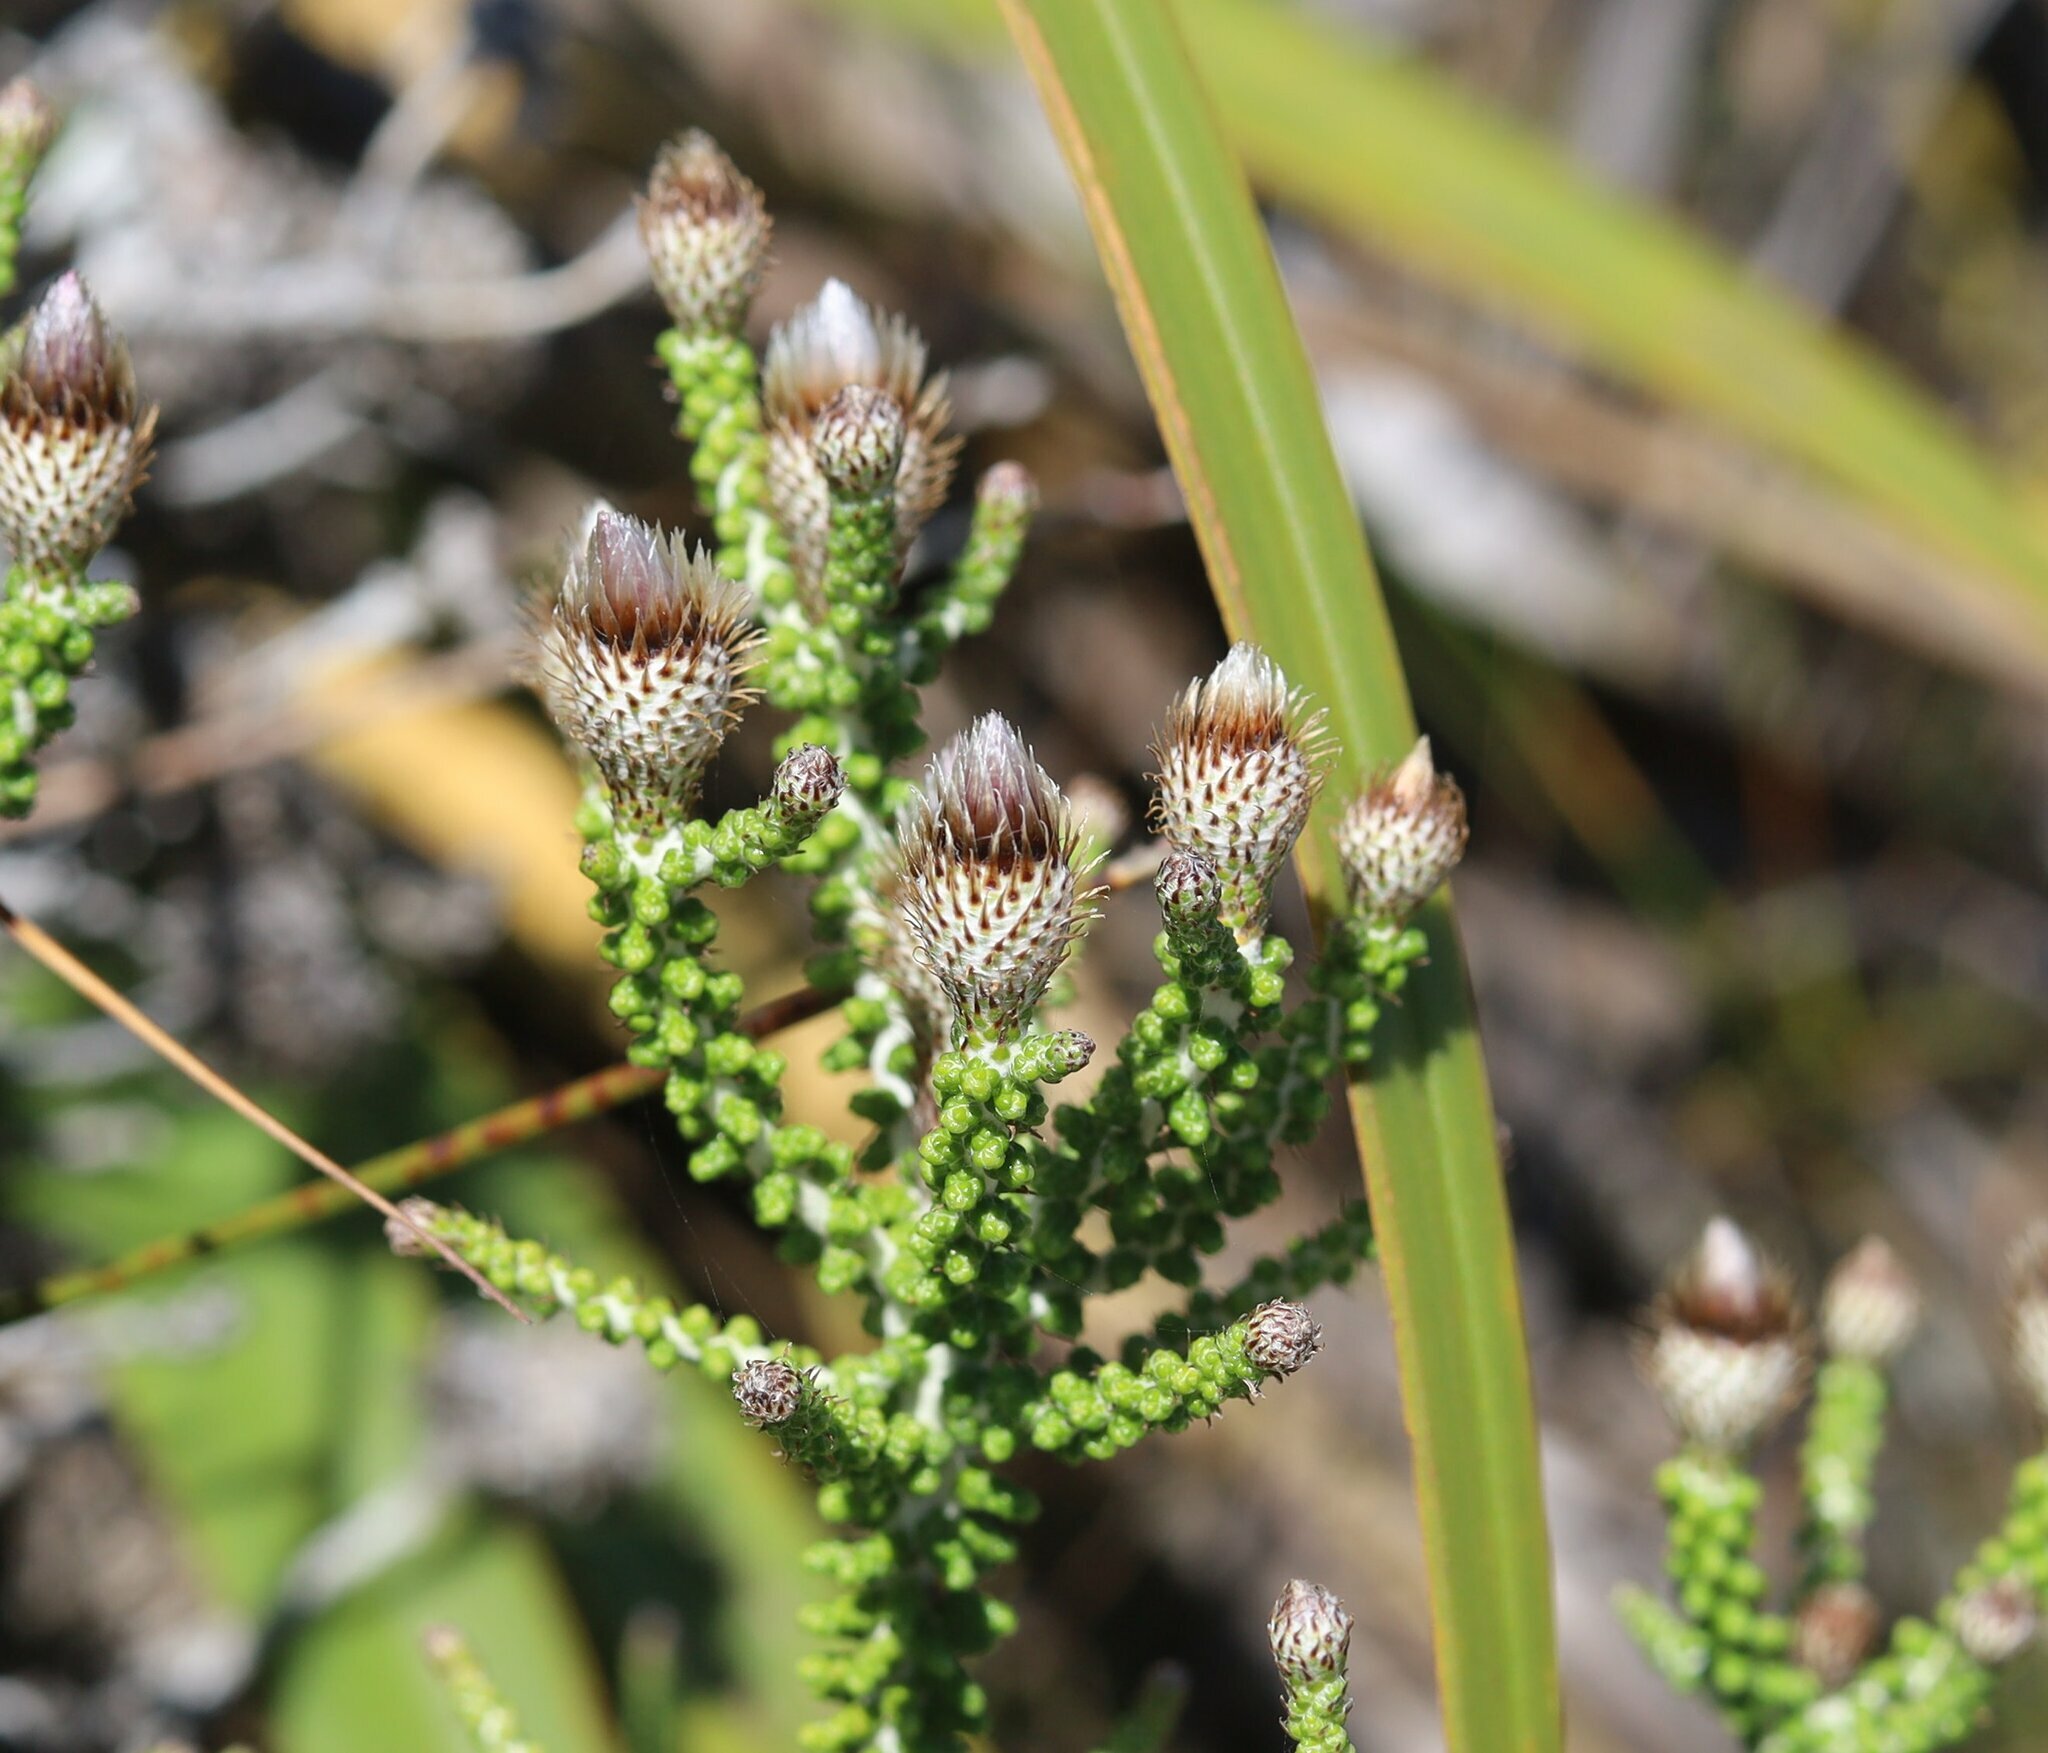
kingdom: Plantae
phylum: Tracheophyta
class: Magnoliopsida
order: Asterales
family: Asteraceae
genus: Phaenocoma
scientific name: Phaenocoma prolifera
